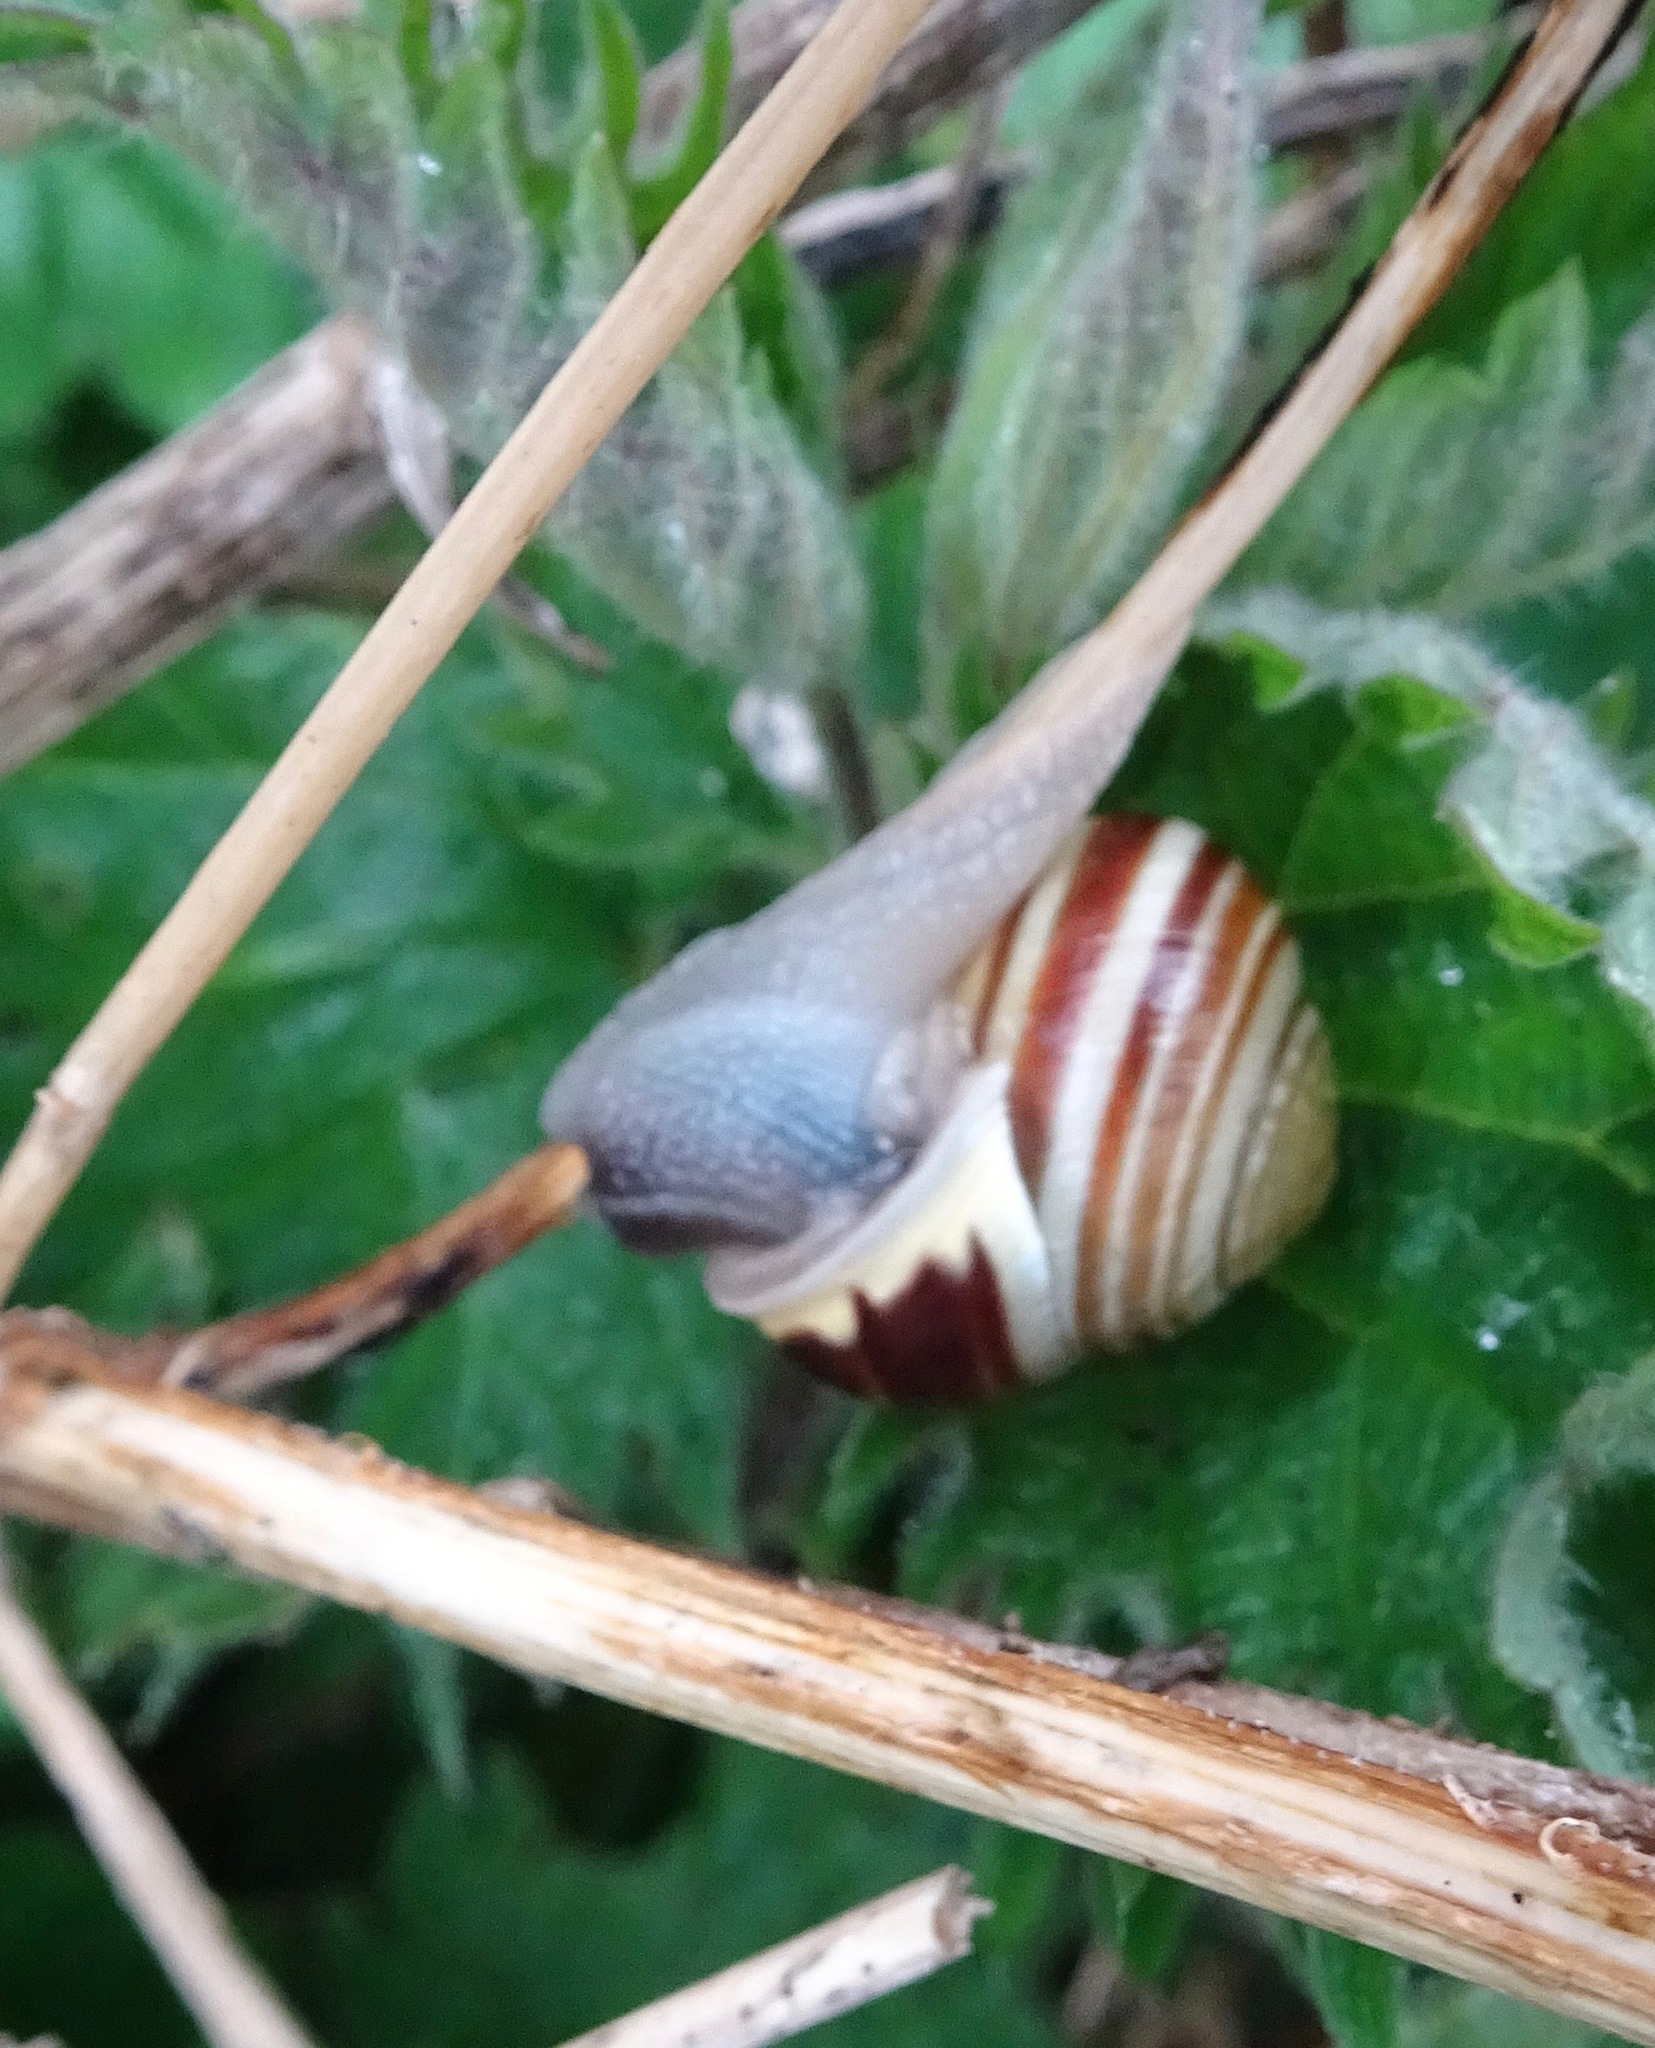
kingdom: Animalia
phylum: Mollusca
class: Gastropoda
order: Stylommatophora
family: Helicidae
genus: Cepaea
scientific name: Cepaea hortensis
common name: White-lip gardensnail
